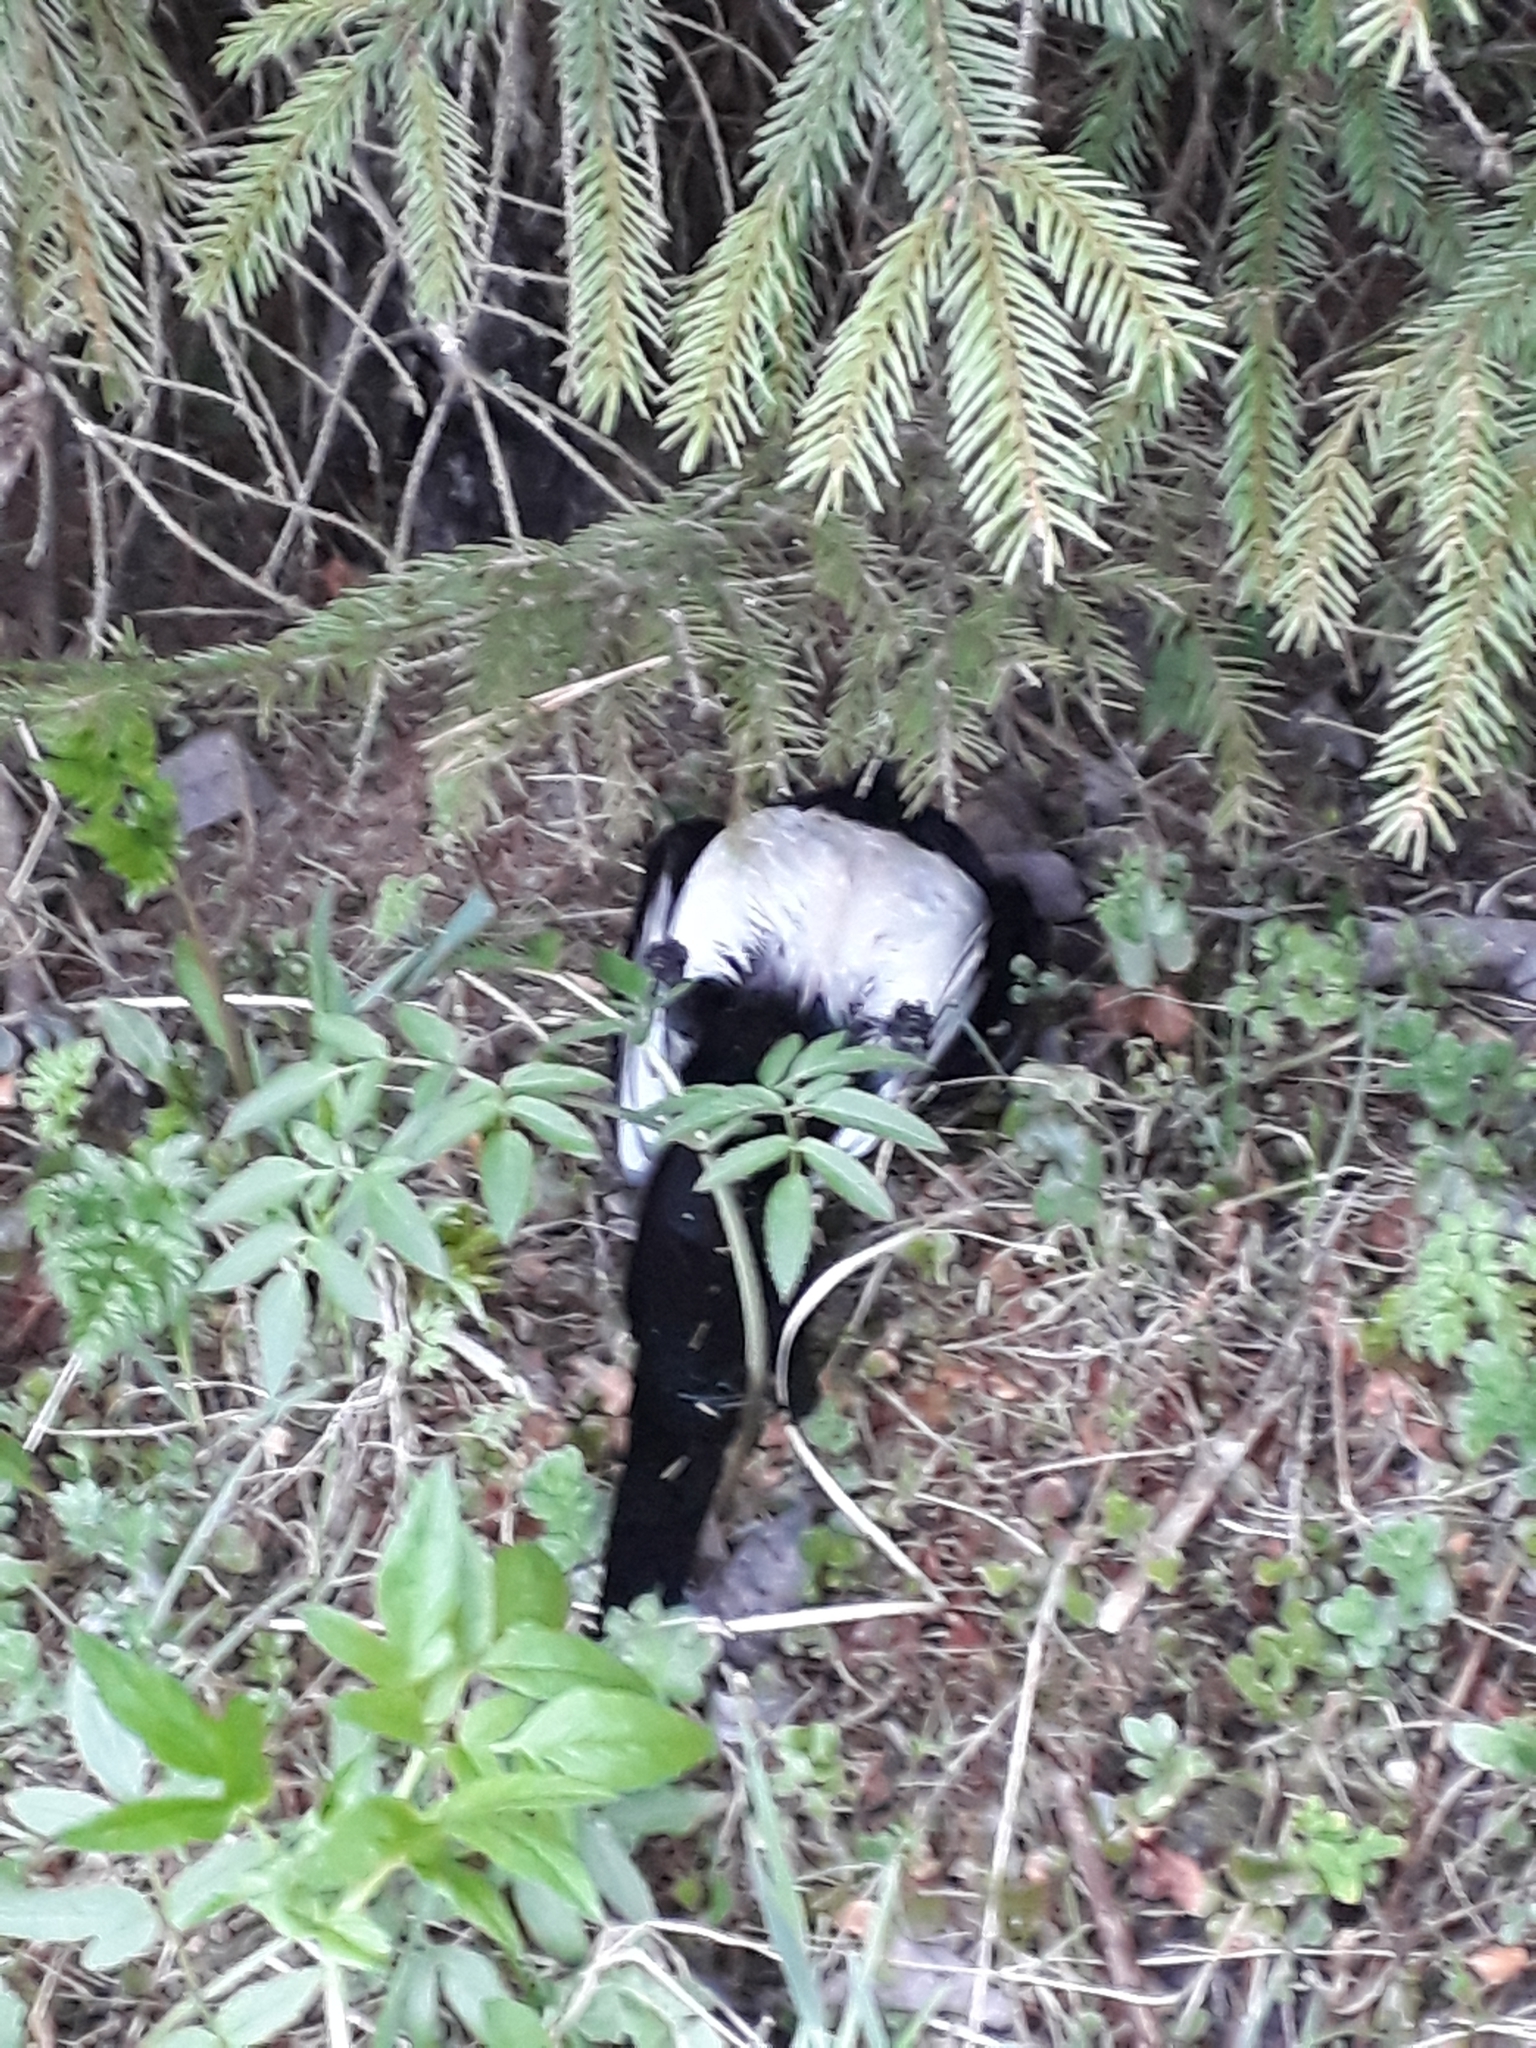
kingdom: Animalia
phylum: Chordata
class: Aves
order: Passeriformes
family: Corvidae
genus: Pica
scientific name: Pica pica
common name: Eurasian magpie
